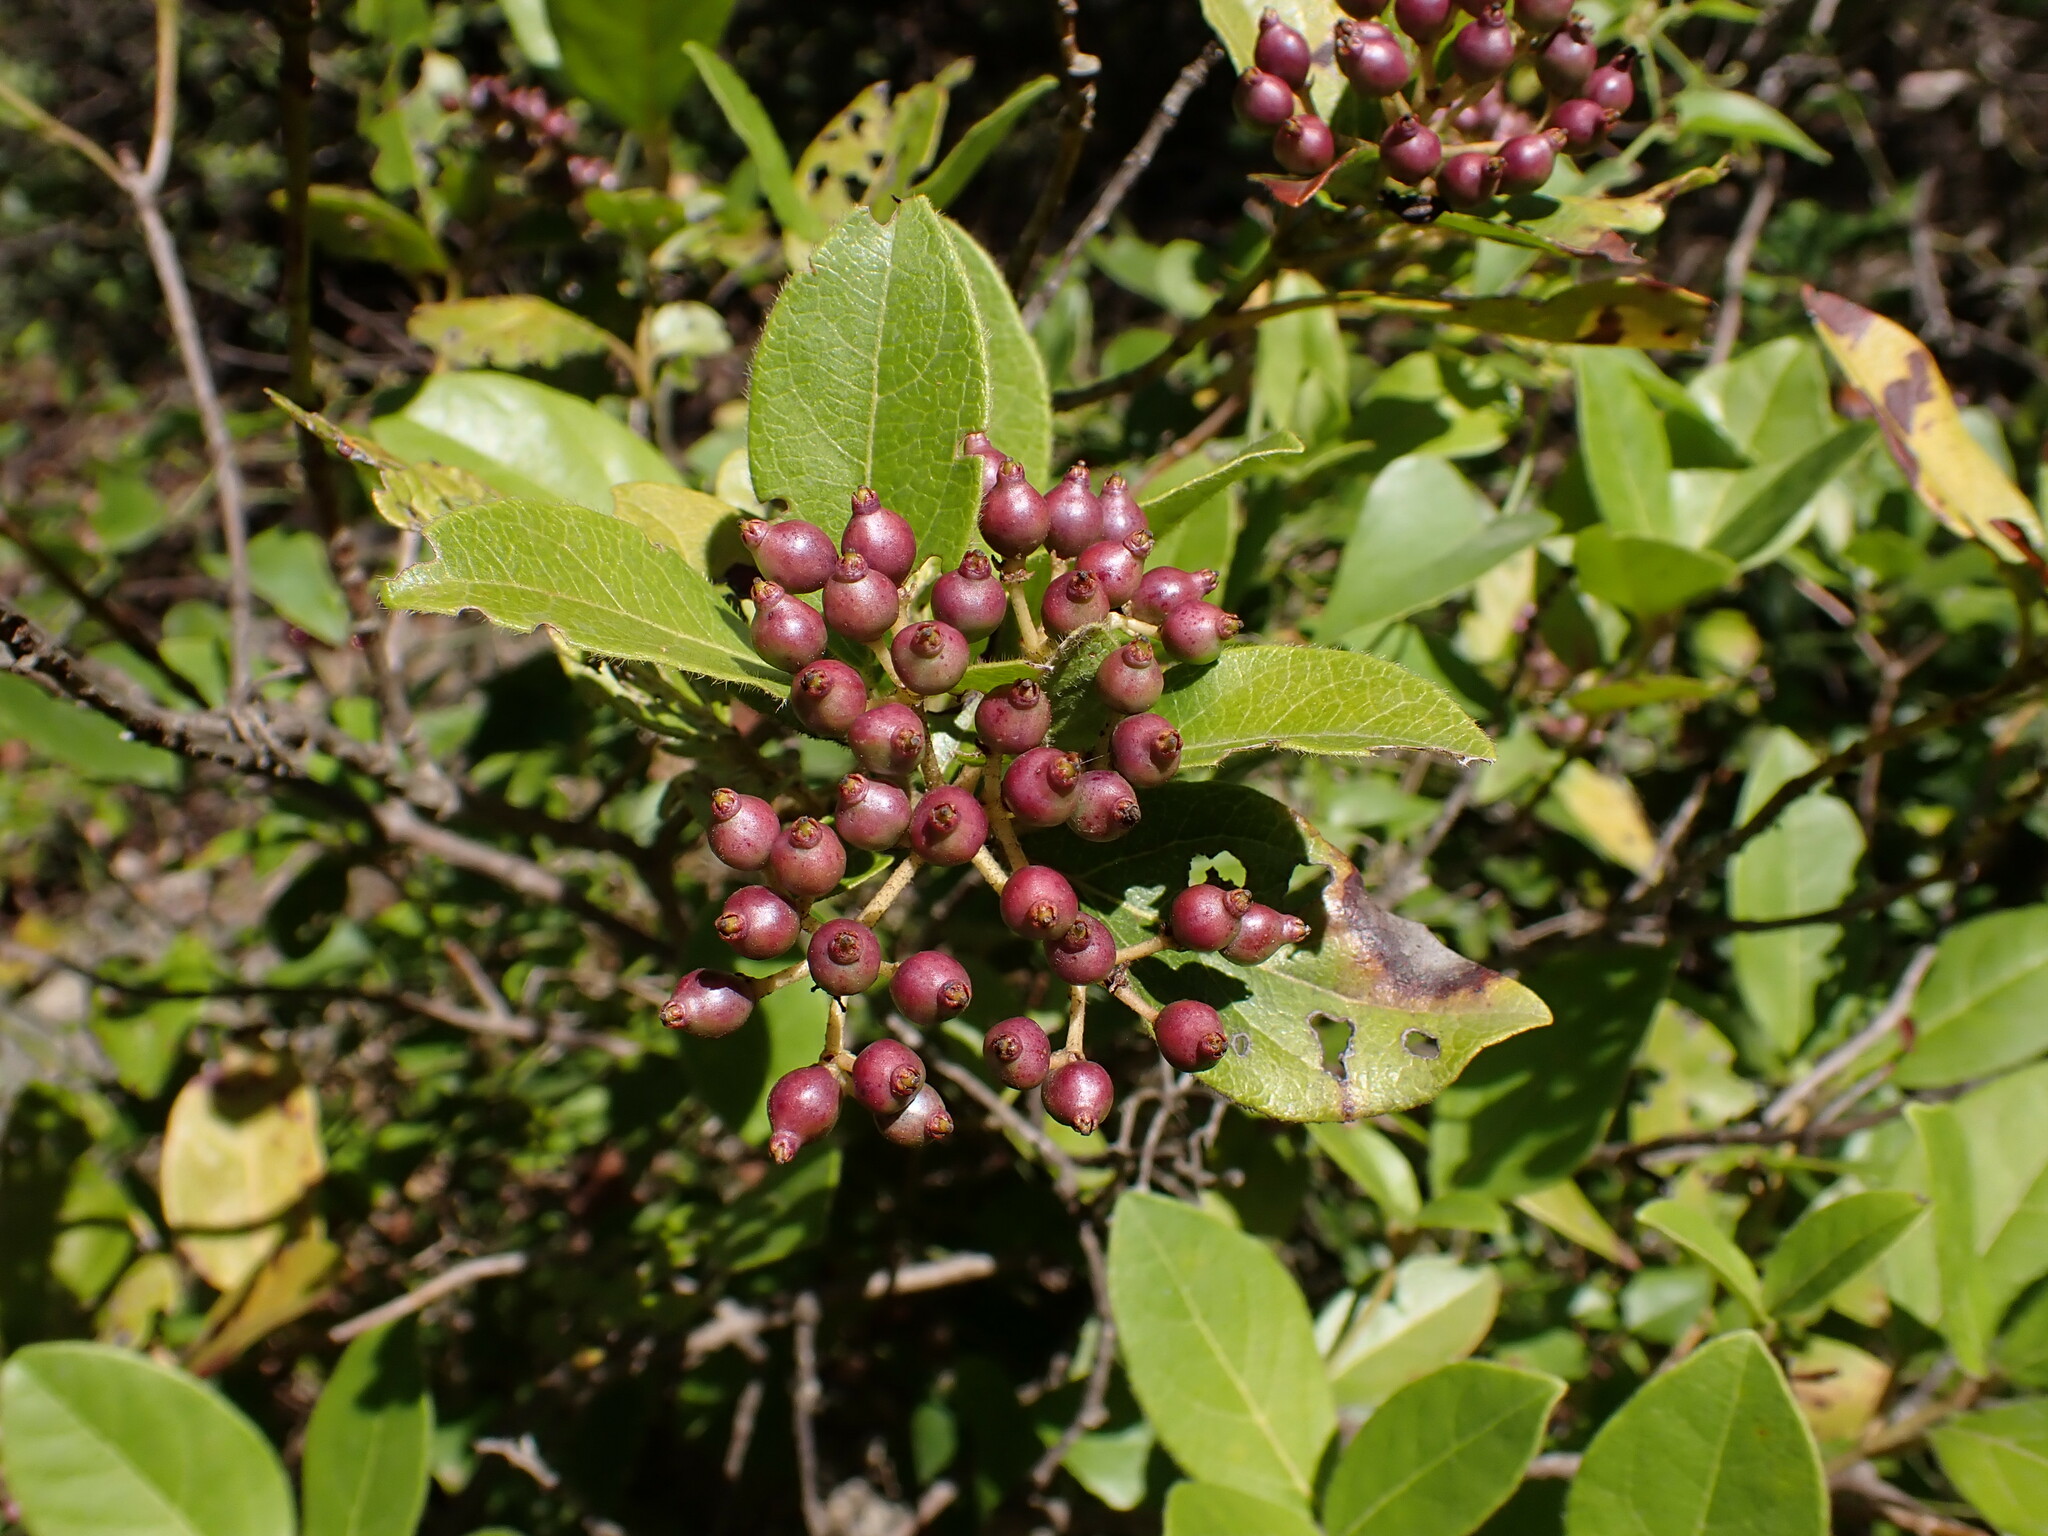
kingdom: Plantae
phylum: Tracheophyta
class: Magnoliopsida
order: Dipsacales
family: Viburnaceae
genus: Viburnum
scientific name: Viburnum tinus
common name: Laurustinus
